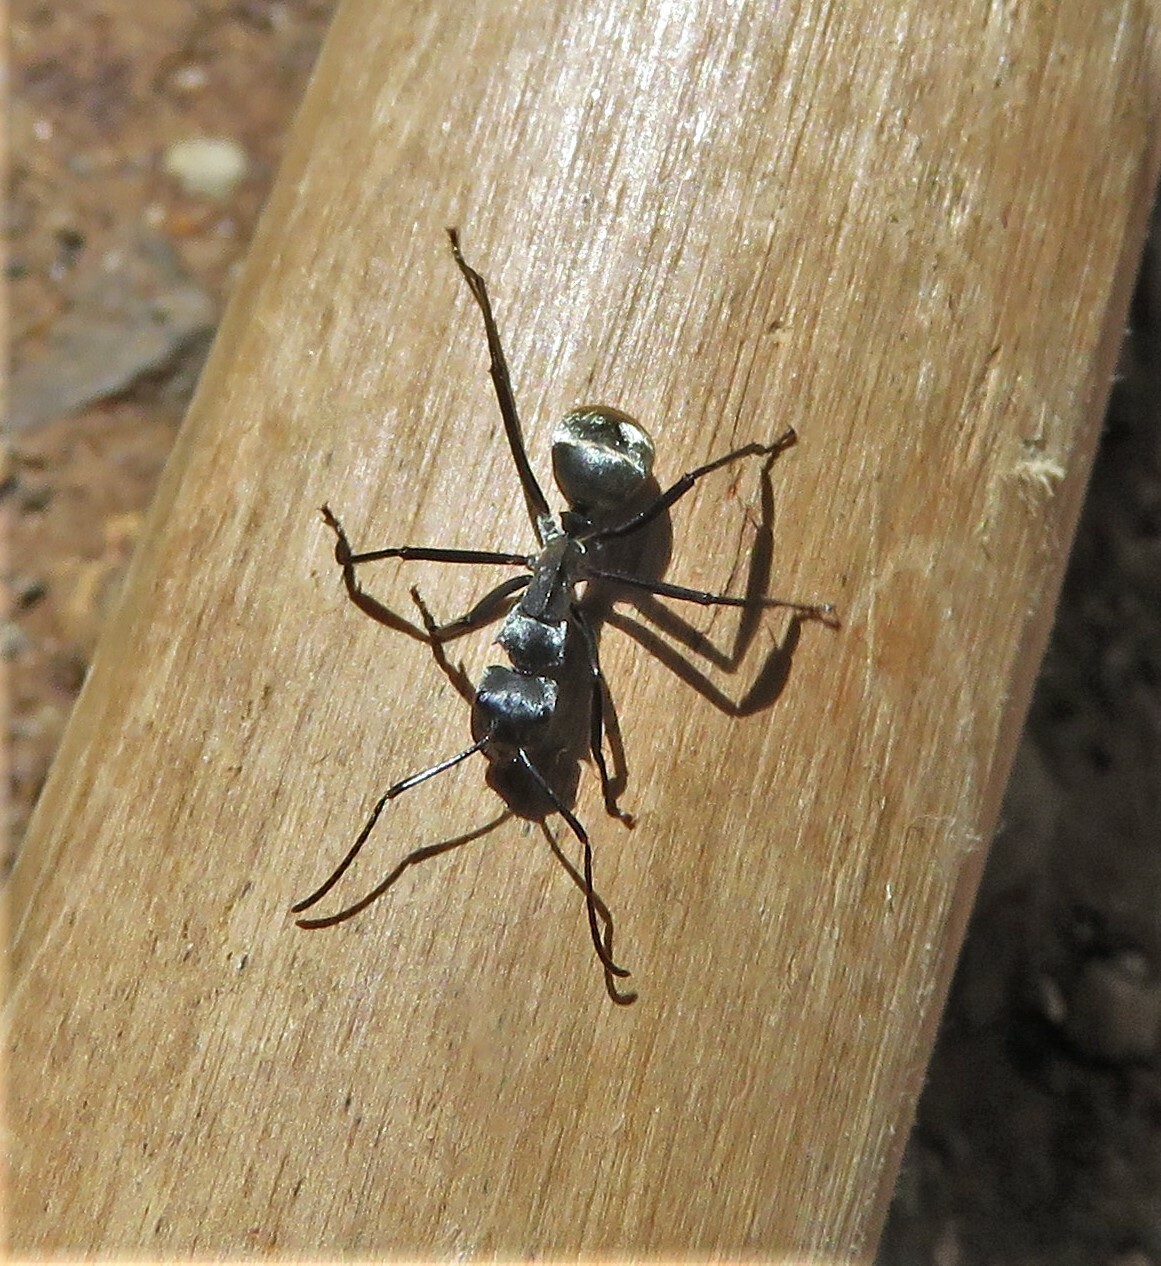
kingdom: Animalia
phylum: Arthropoda
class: Insecta
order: Hymenoptera
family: Formicidae
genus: Camponotus
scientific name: Camponotus sericeiventris
